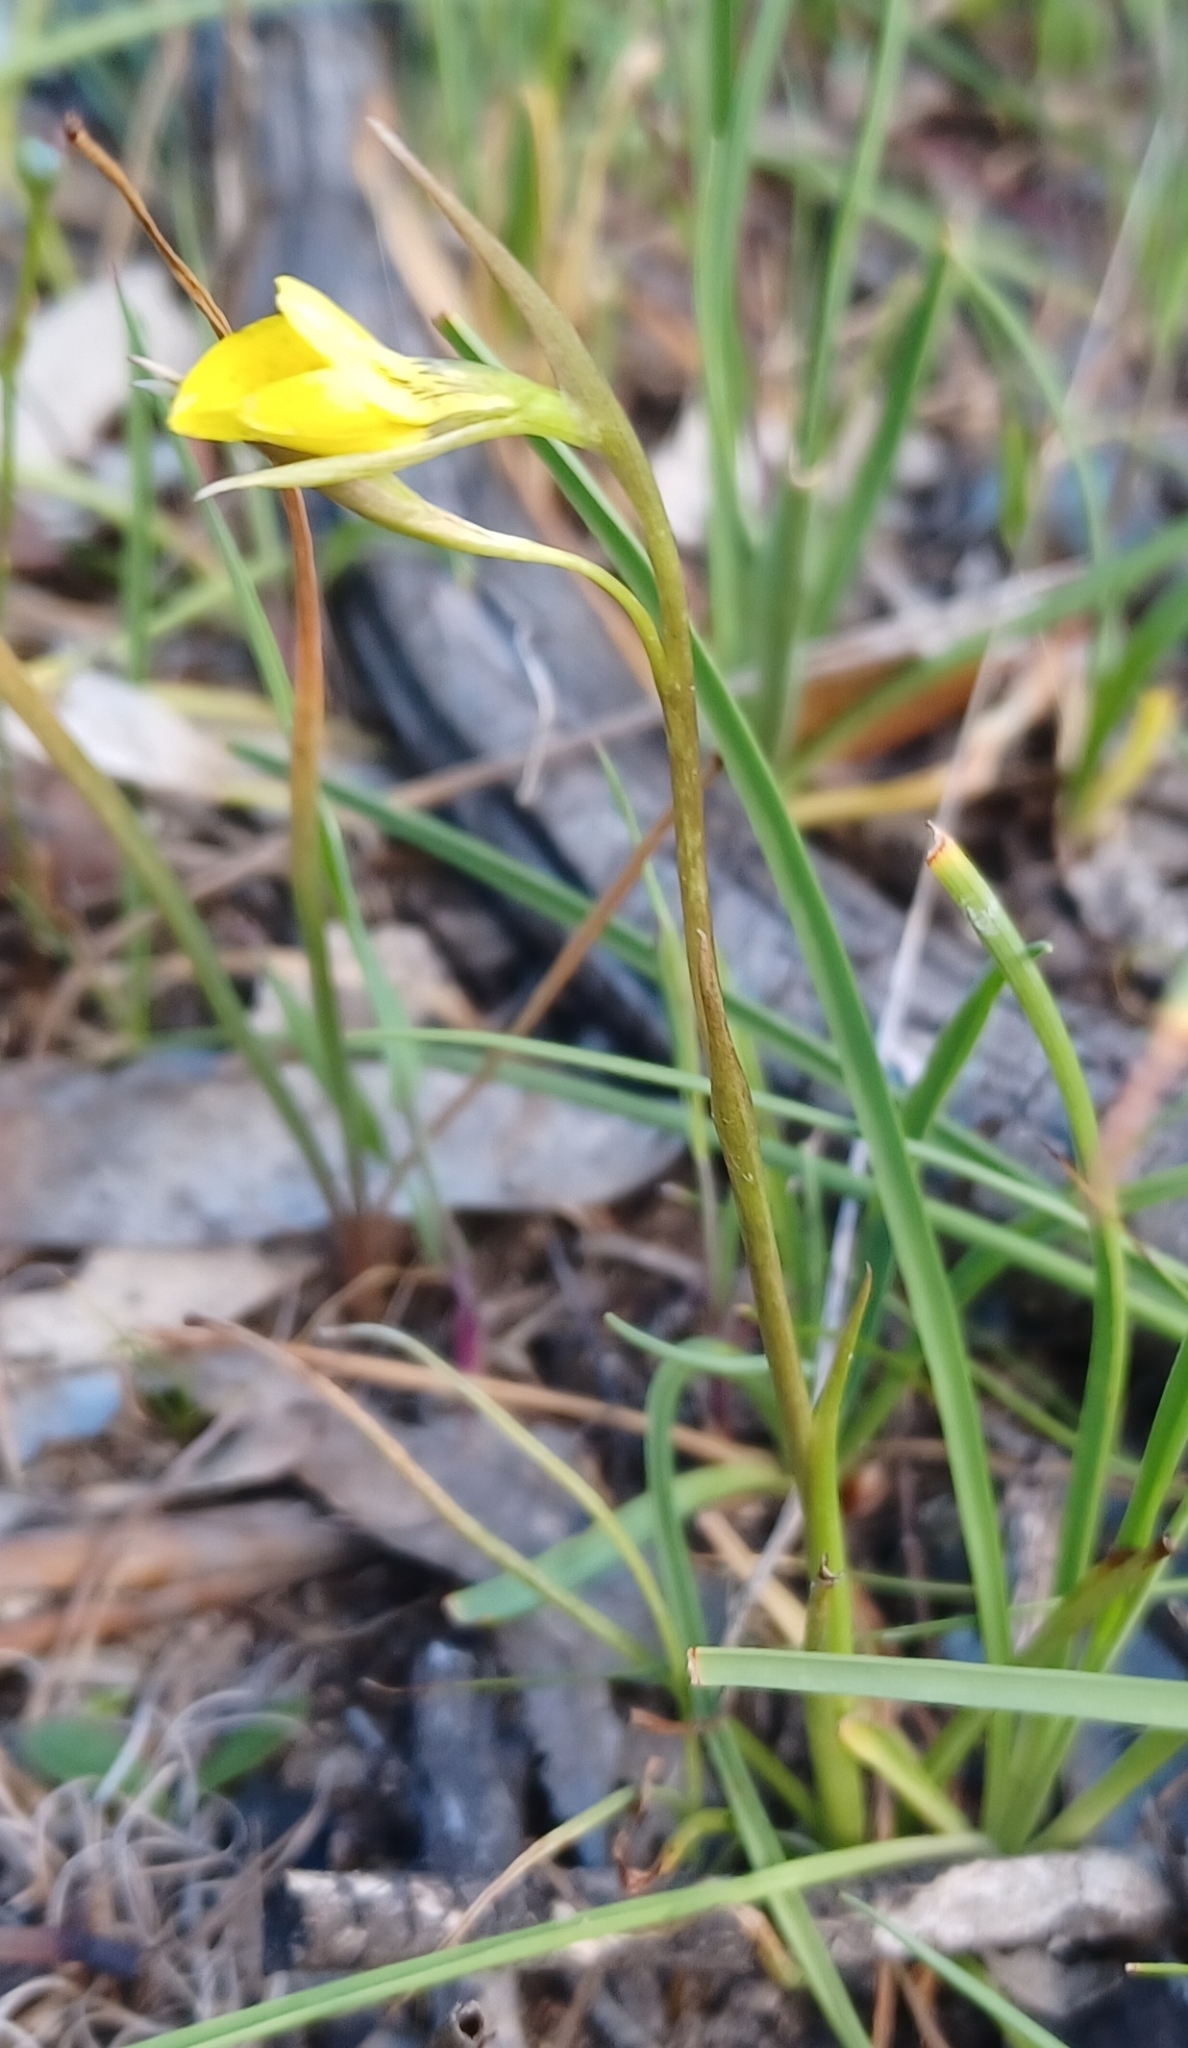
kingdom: Plantae
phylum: Tracheophyta
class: Liliopsida
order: Asparagales
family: Orchidaceae
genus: Diuris
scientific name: Diuris behrii
